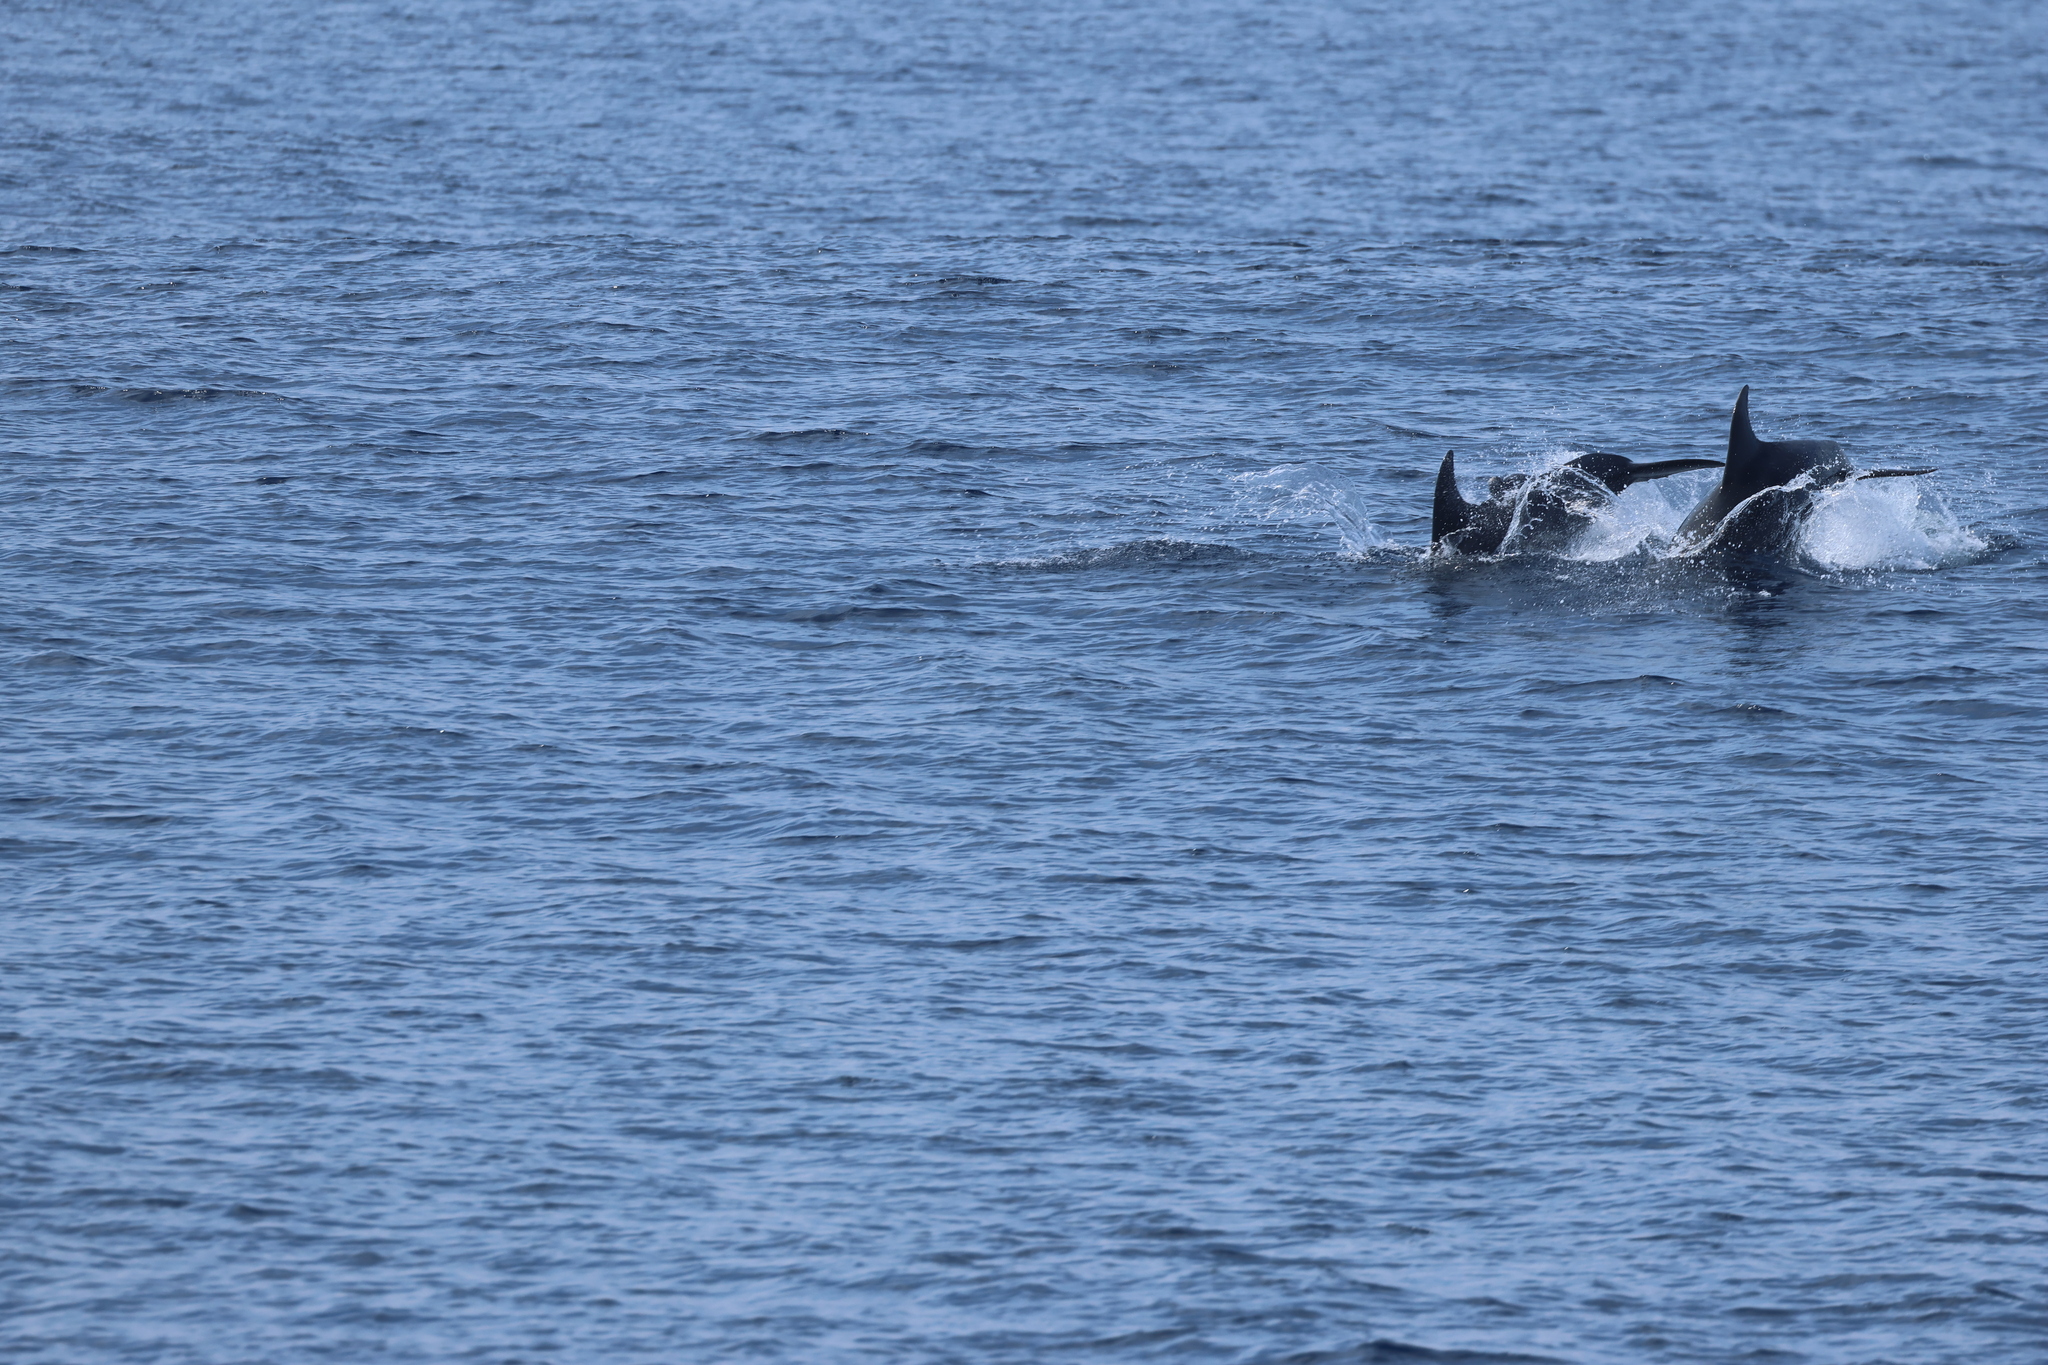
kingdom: Animalia
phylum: Chordata
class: Mammalia
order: Cetacea
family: Delphinidae
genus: Tursiops
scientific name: Tursiops truncatus
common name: Bottlenose dolphin
